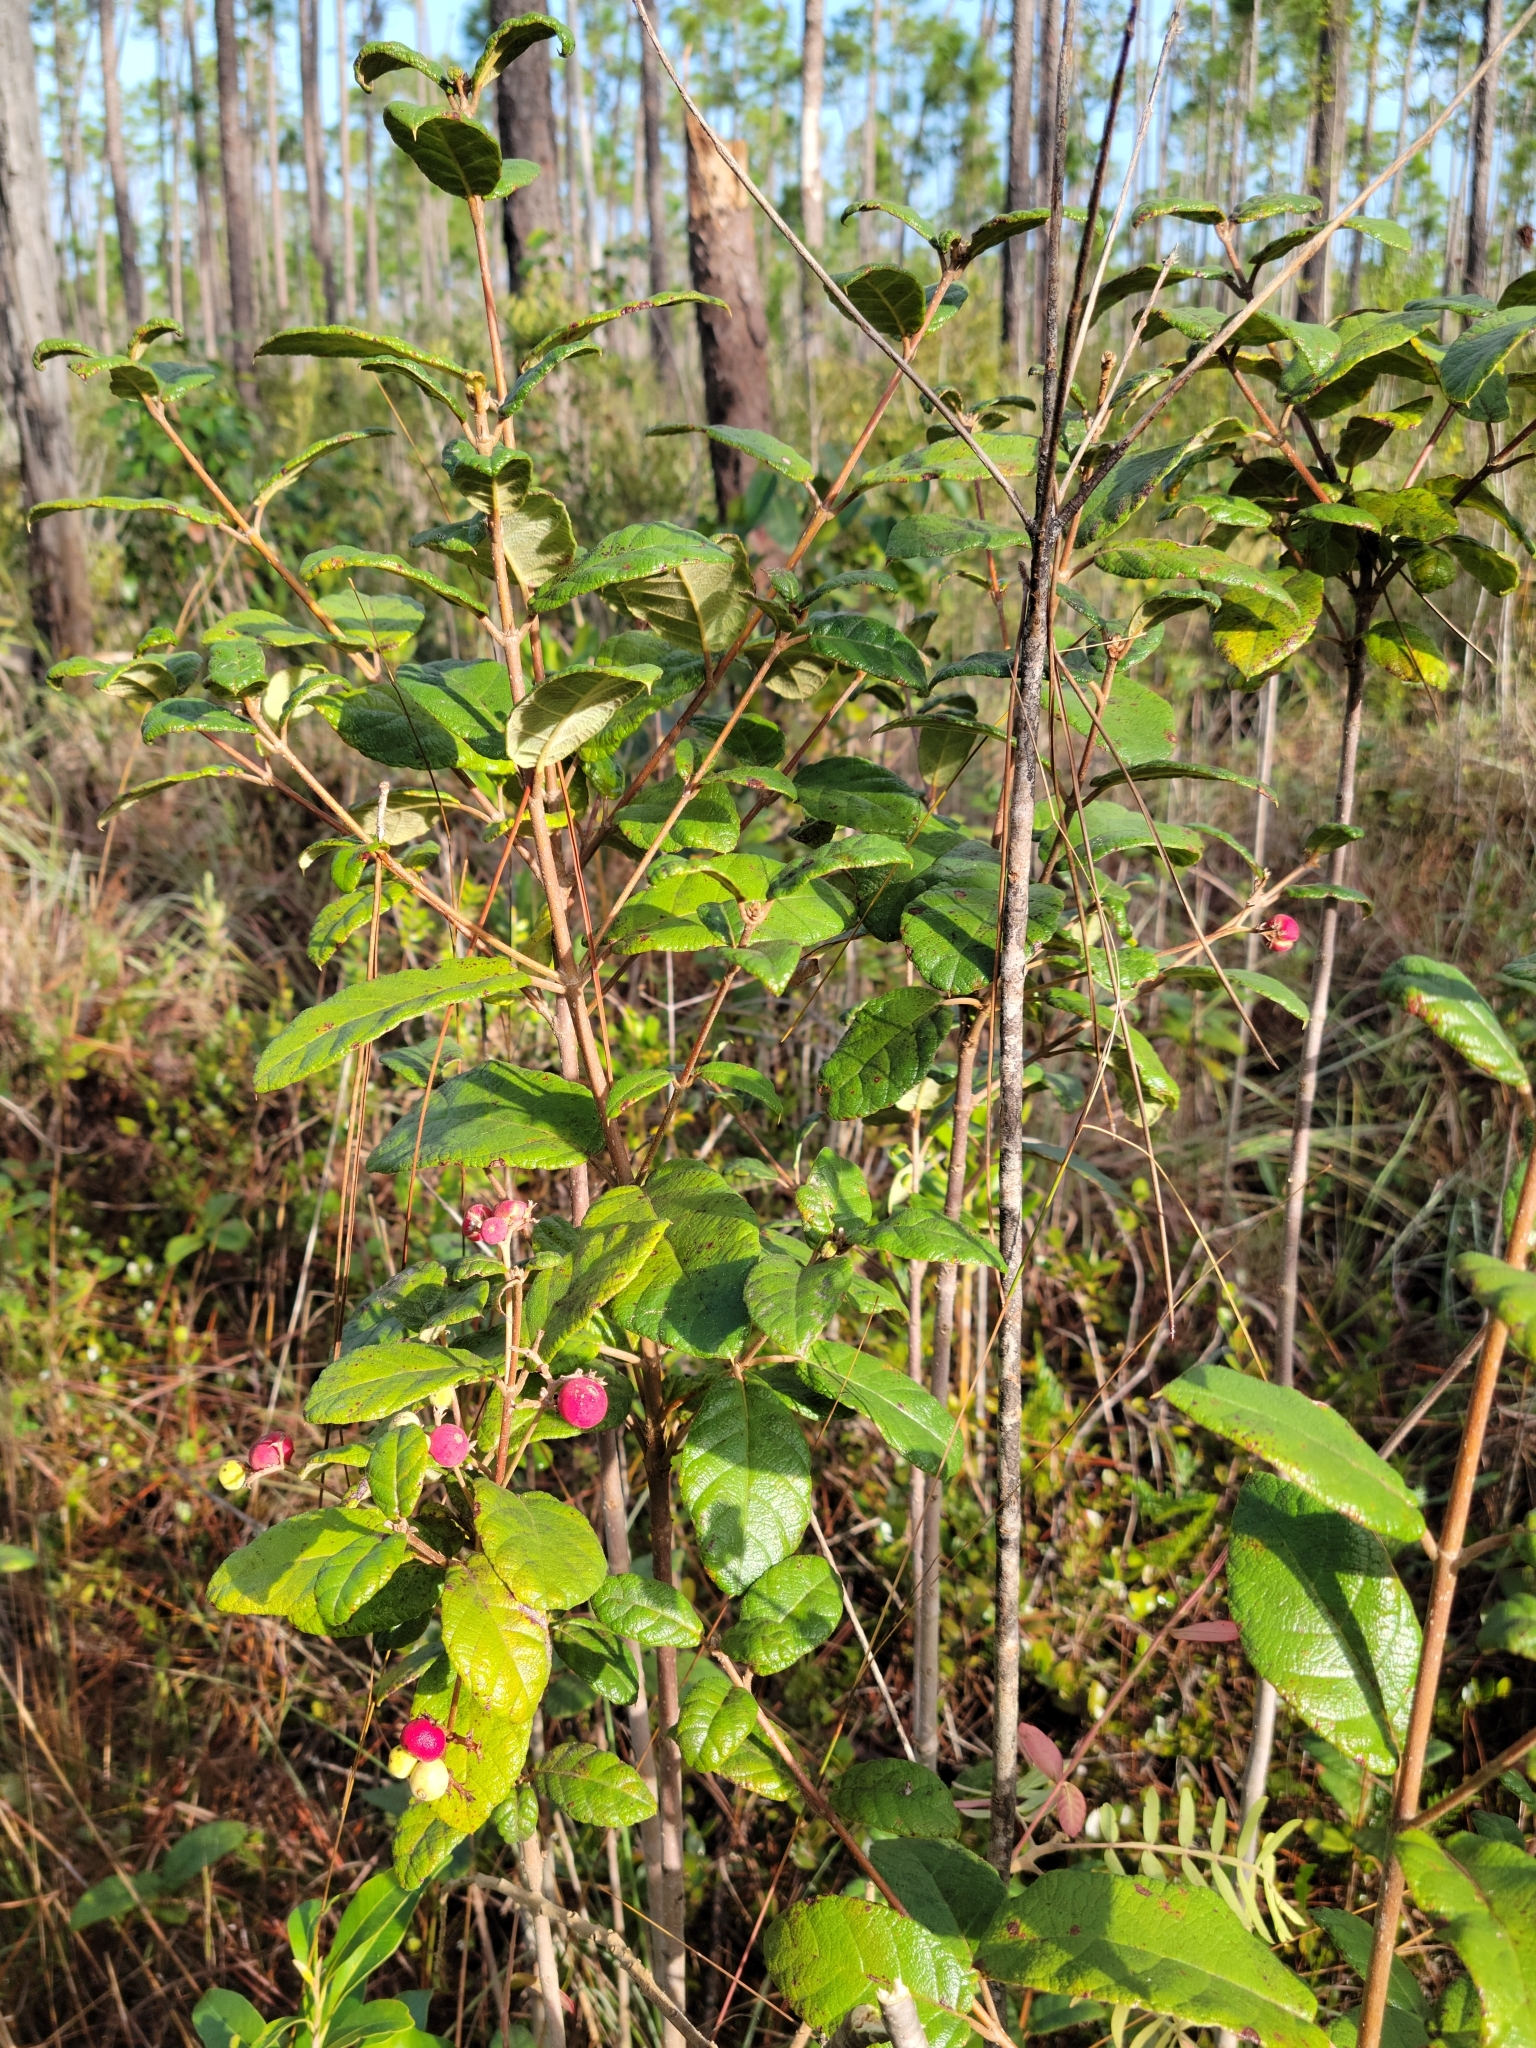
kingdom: Plantae
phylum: Tracheophyta
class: Magnoliopsida
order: Gentianales
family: Rubiaceae
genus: Guettarda
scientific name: Guettarda scabra
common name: Pigeon bay
